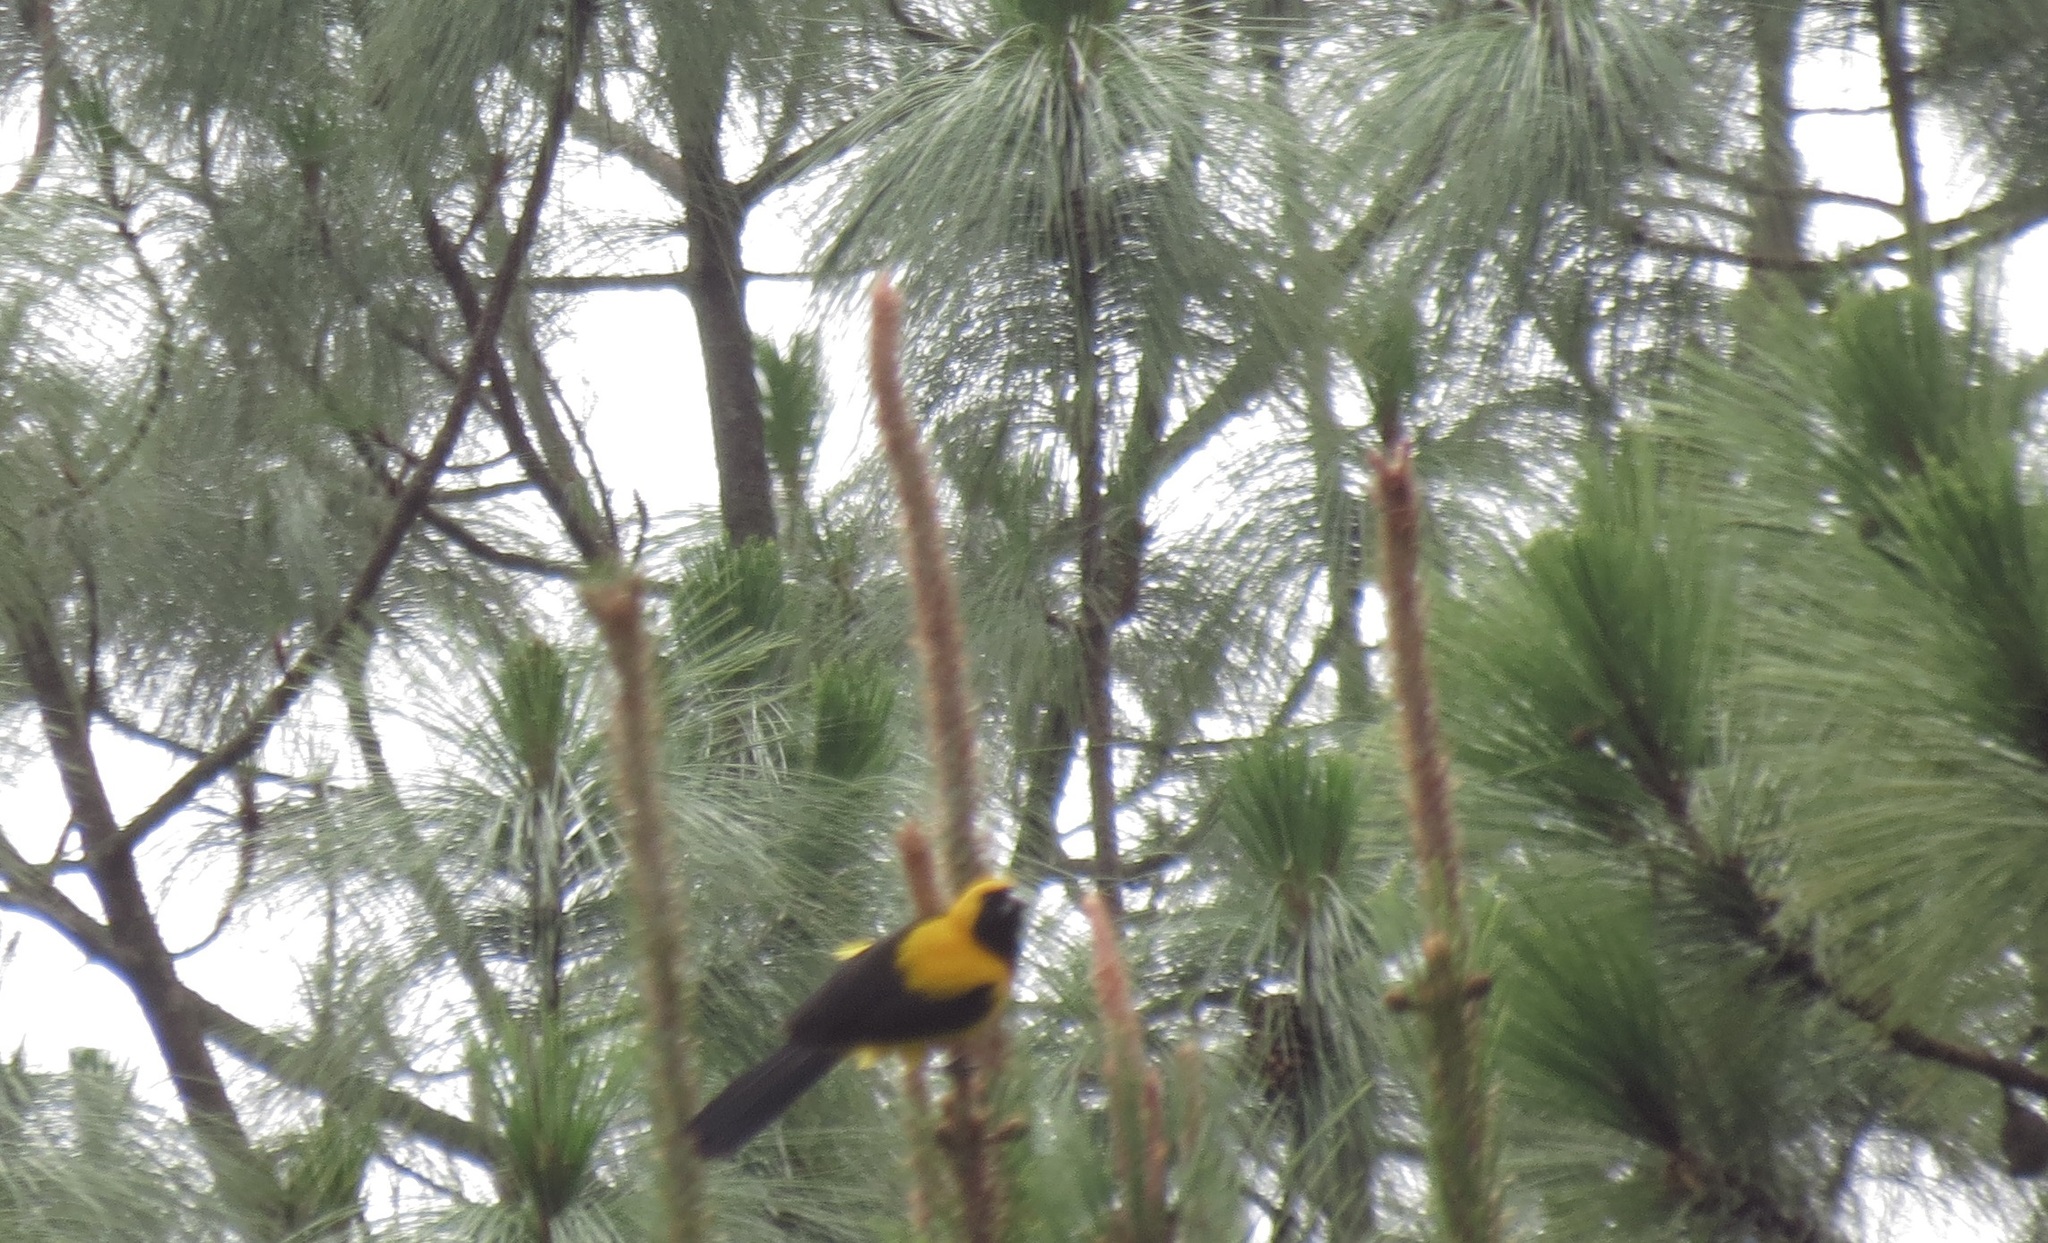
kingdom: Animalia
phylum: Chordata
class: Aves
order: Passeriformes
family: Icteridae
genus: Icterus
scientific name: Icterus chrysater
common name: Yellow-backed oriole
